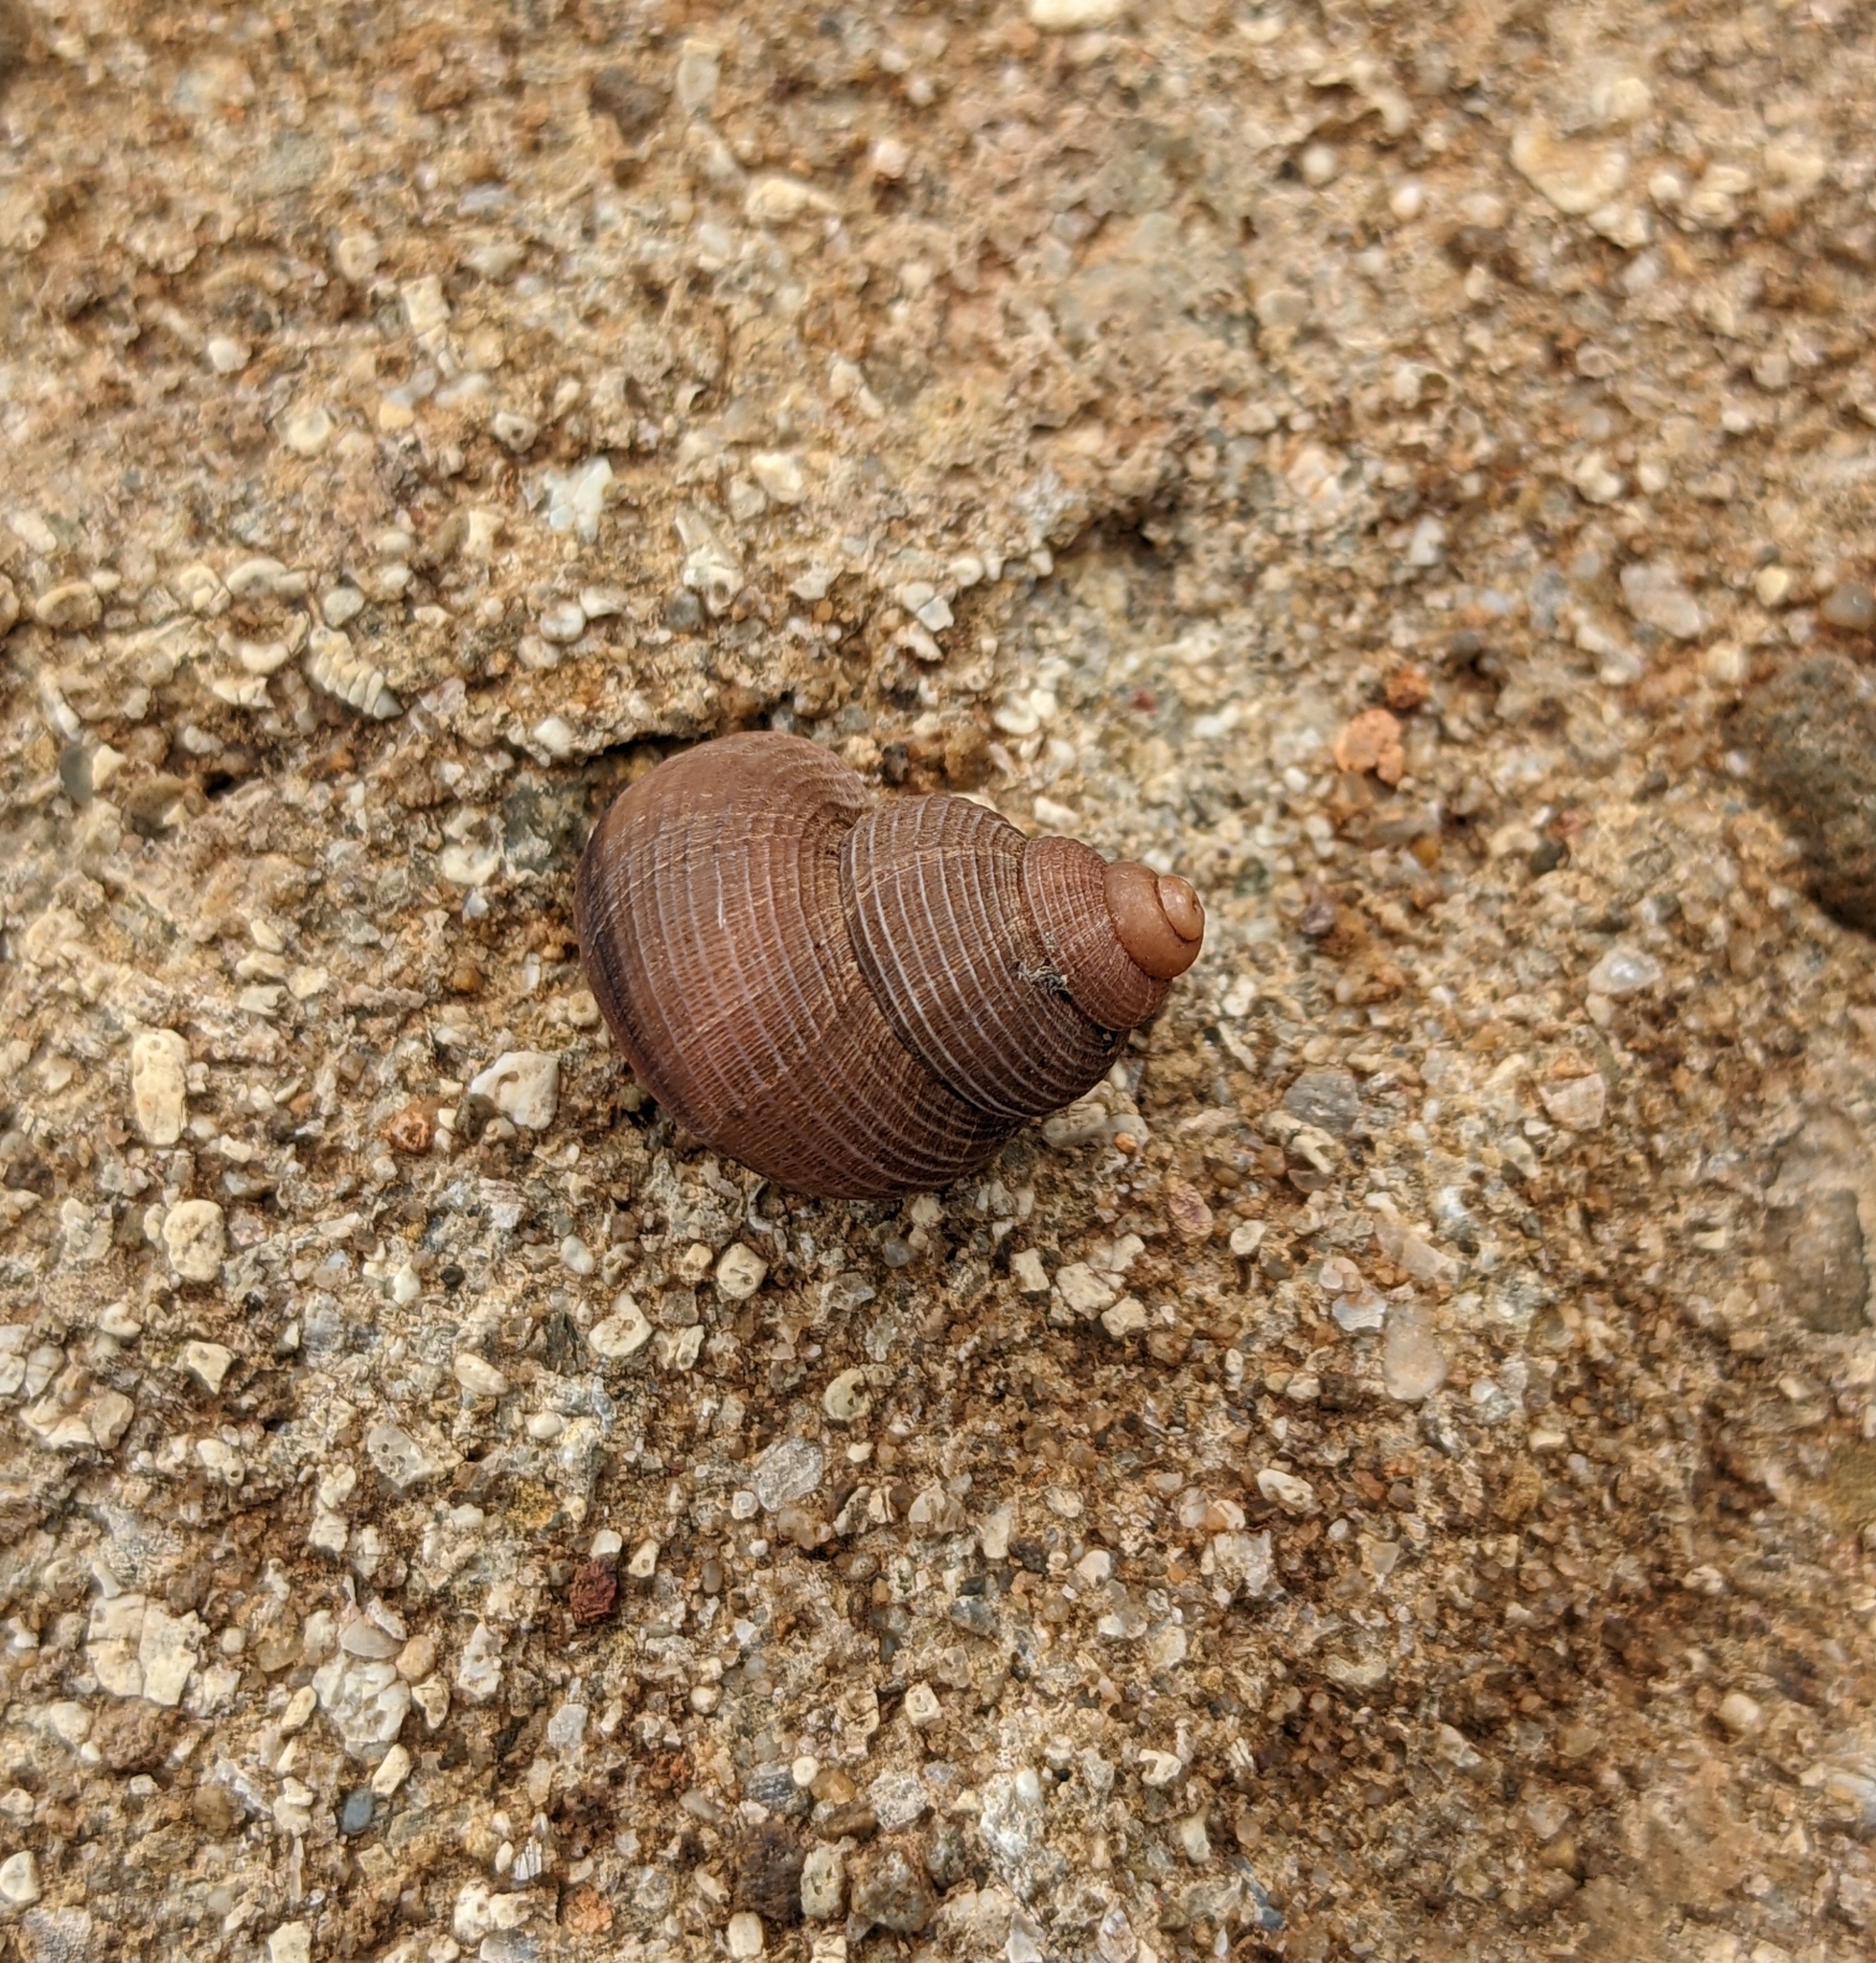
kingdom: Animalia
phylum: Mollusca
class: Gastropoda
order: Littorinimorpha
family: Pomatiidae
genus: Tudorella
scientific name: Tudorella sulcata
